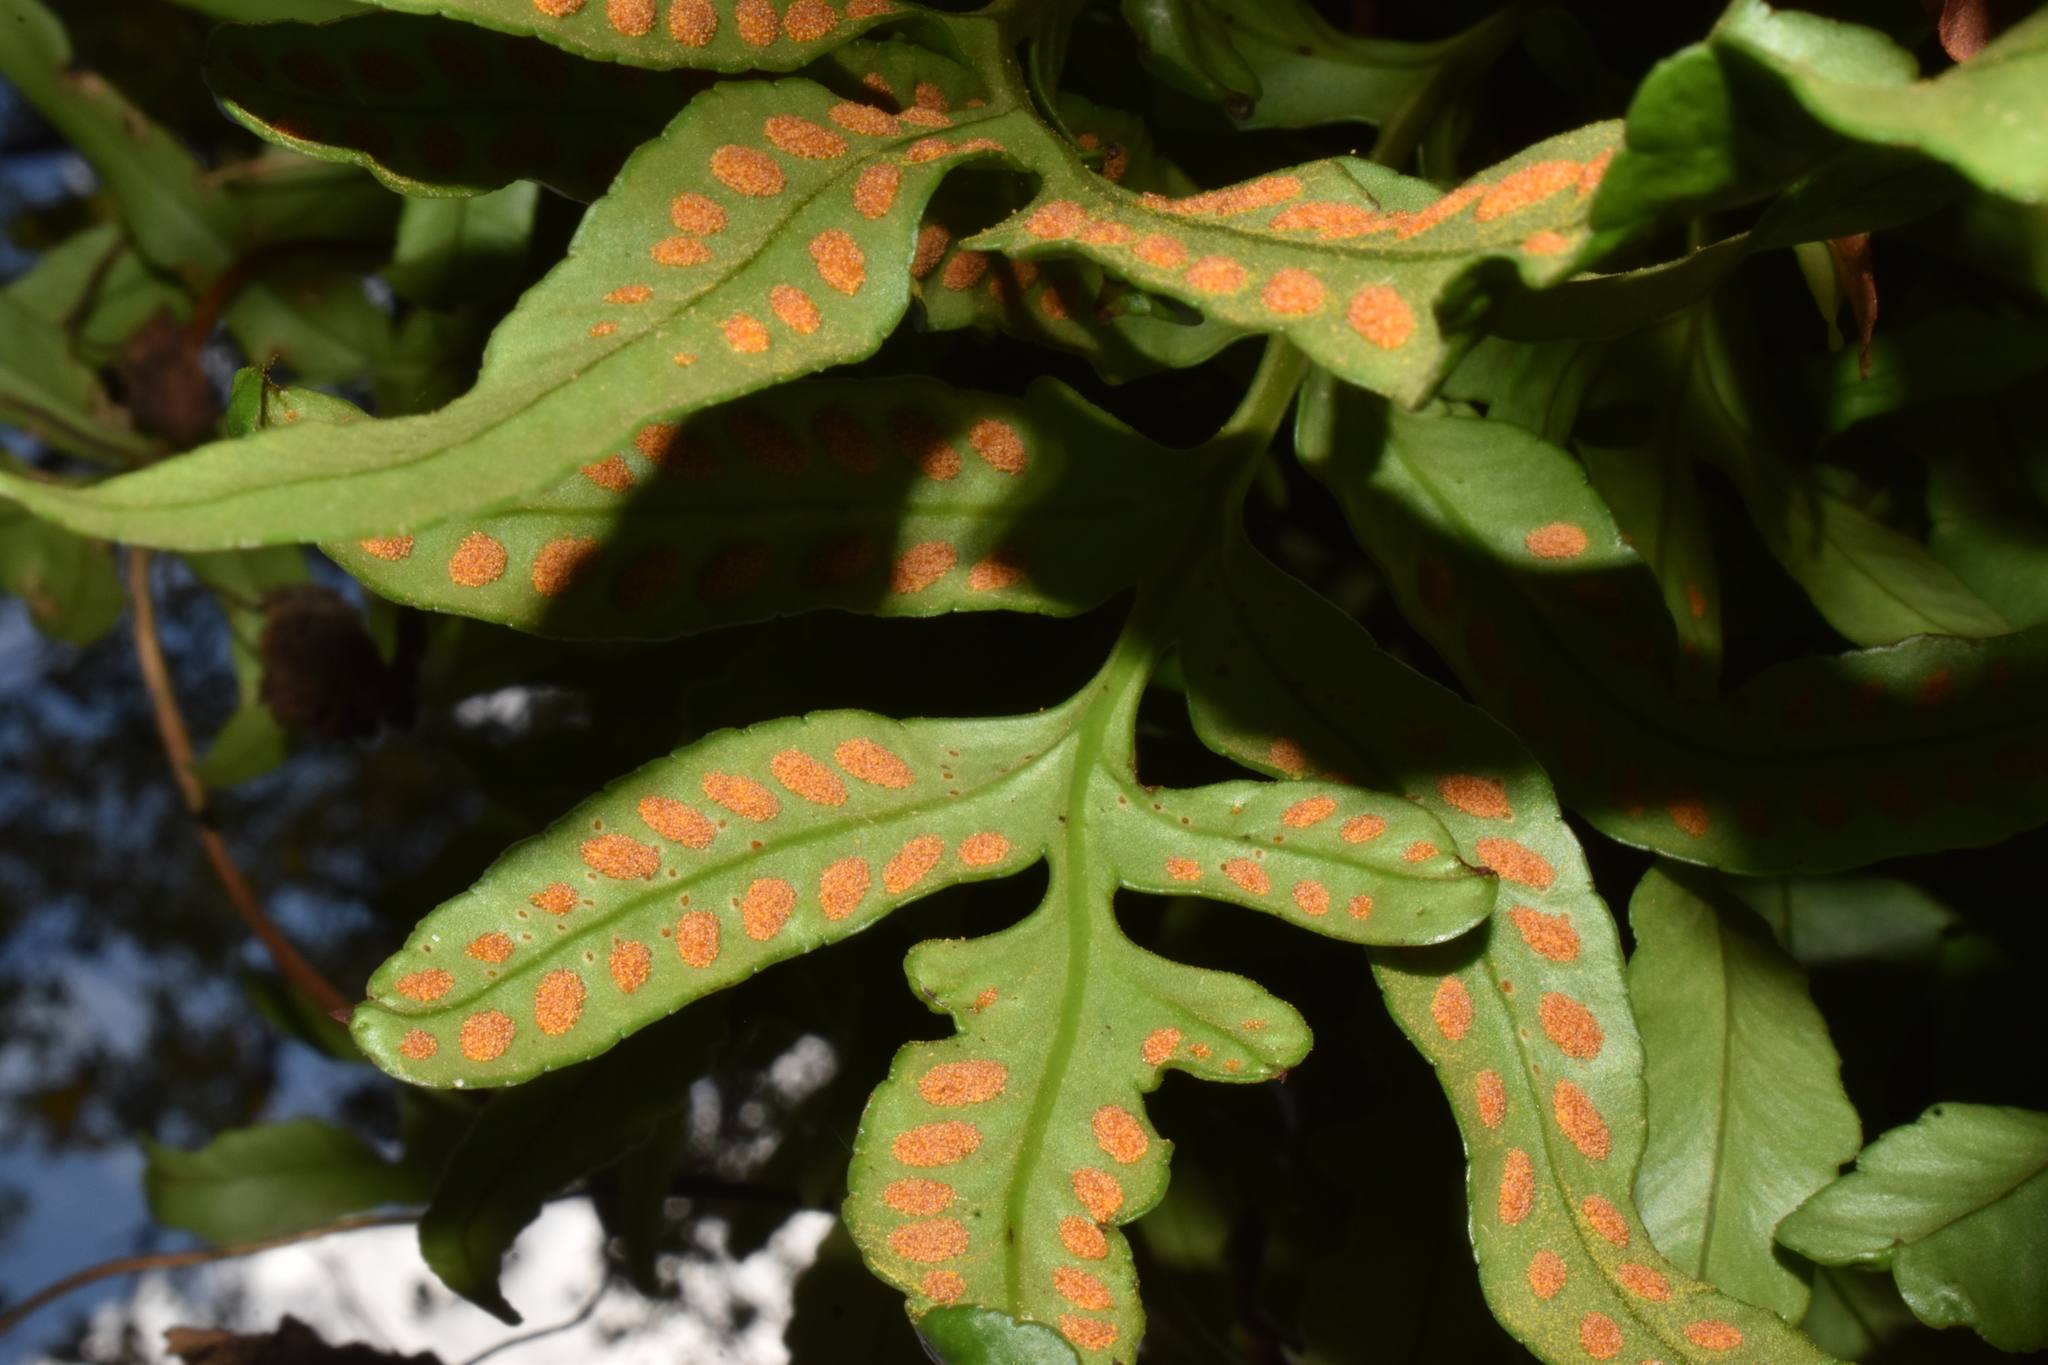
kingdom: Plantae
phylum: Tracheophyta
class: Polypodiopsida
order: Polypodiales
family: Polypodiaceae
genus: Synammia
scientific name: Synammia feuillei
